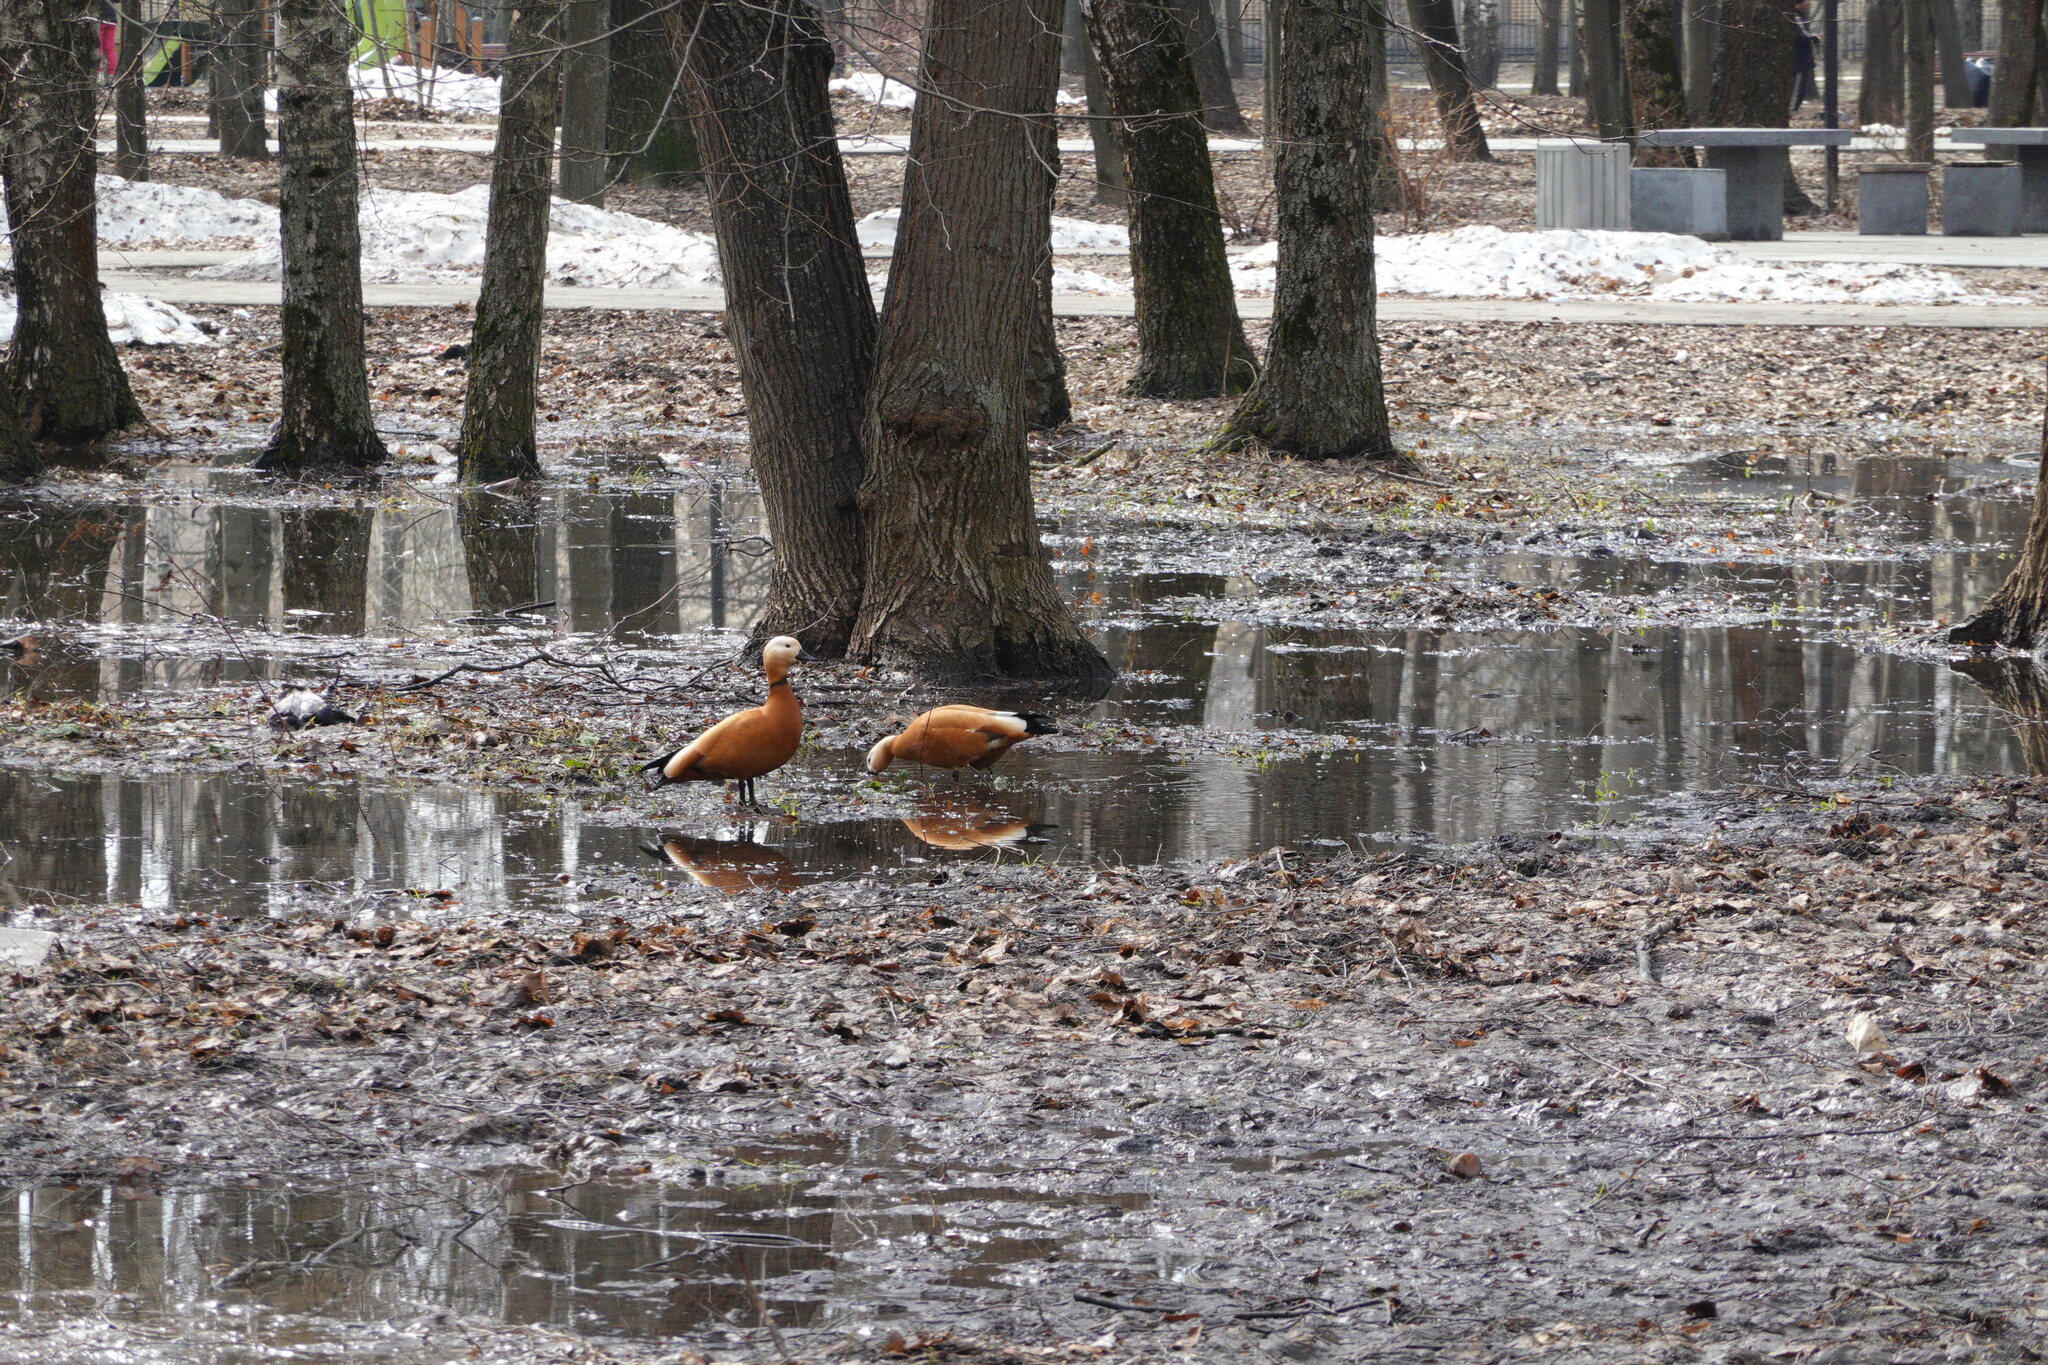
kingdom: Animalia
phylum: Chordata
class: Aves
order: Anseriformes
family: Anatidae
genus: Tadorna
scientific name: Tadorna ferruginea
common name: Ruddy shelduck
